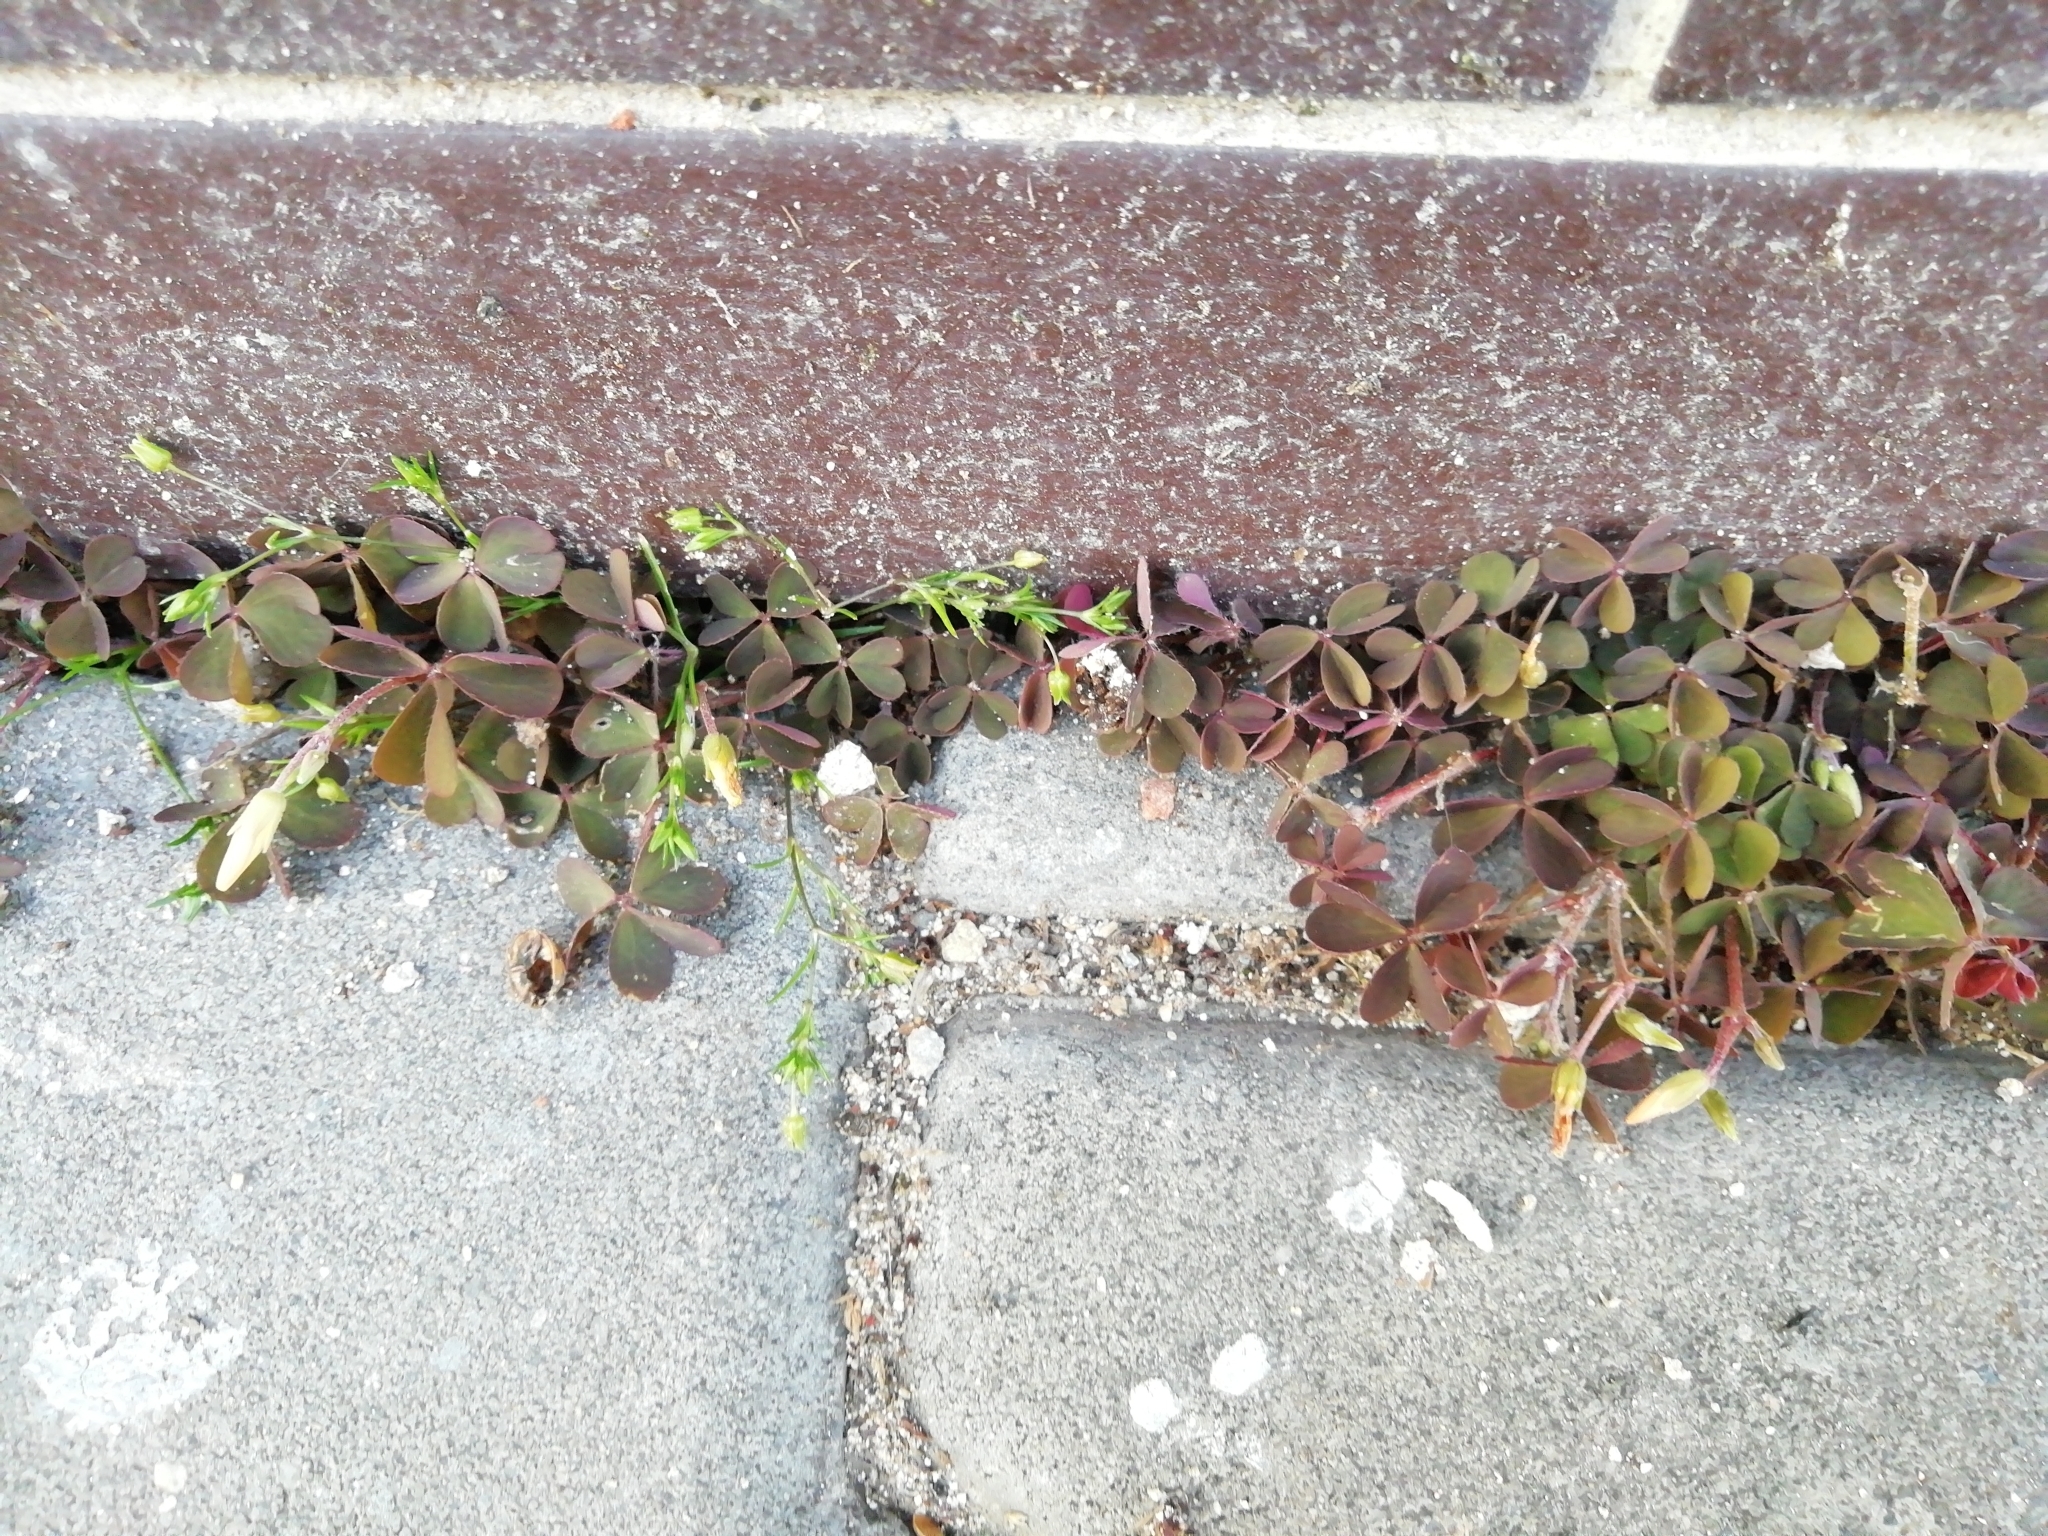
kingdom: Plantae
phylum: Tracheophyta
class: Magnoliopsida
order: Oxalidales
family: Oxalidaceae
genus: Oxalis
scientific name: Oxalis corniculata
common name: Procumbent yellow-sorrel
